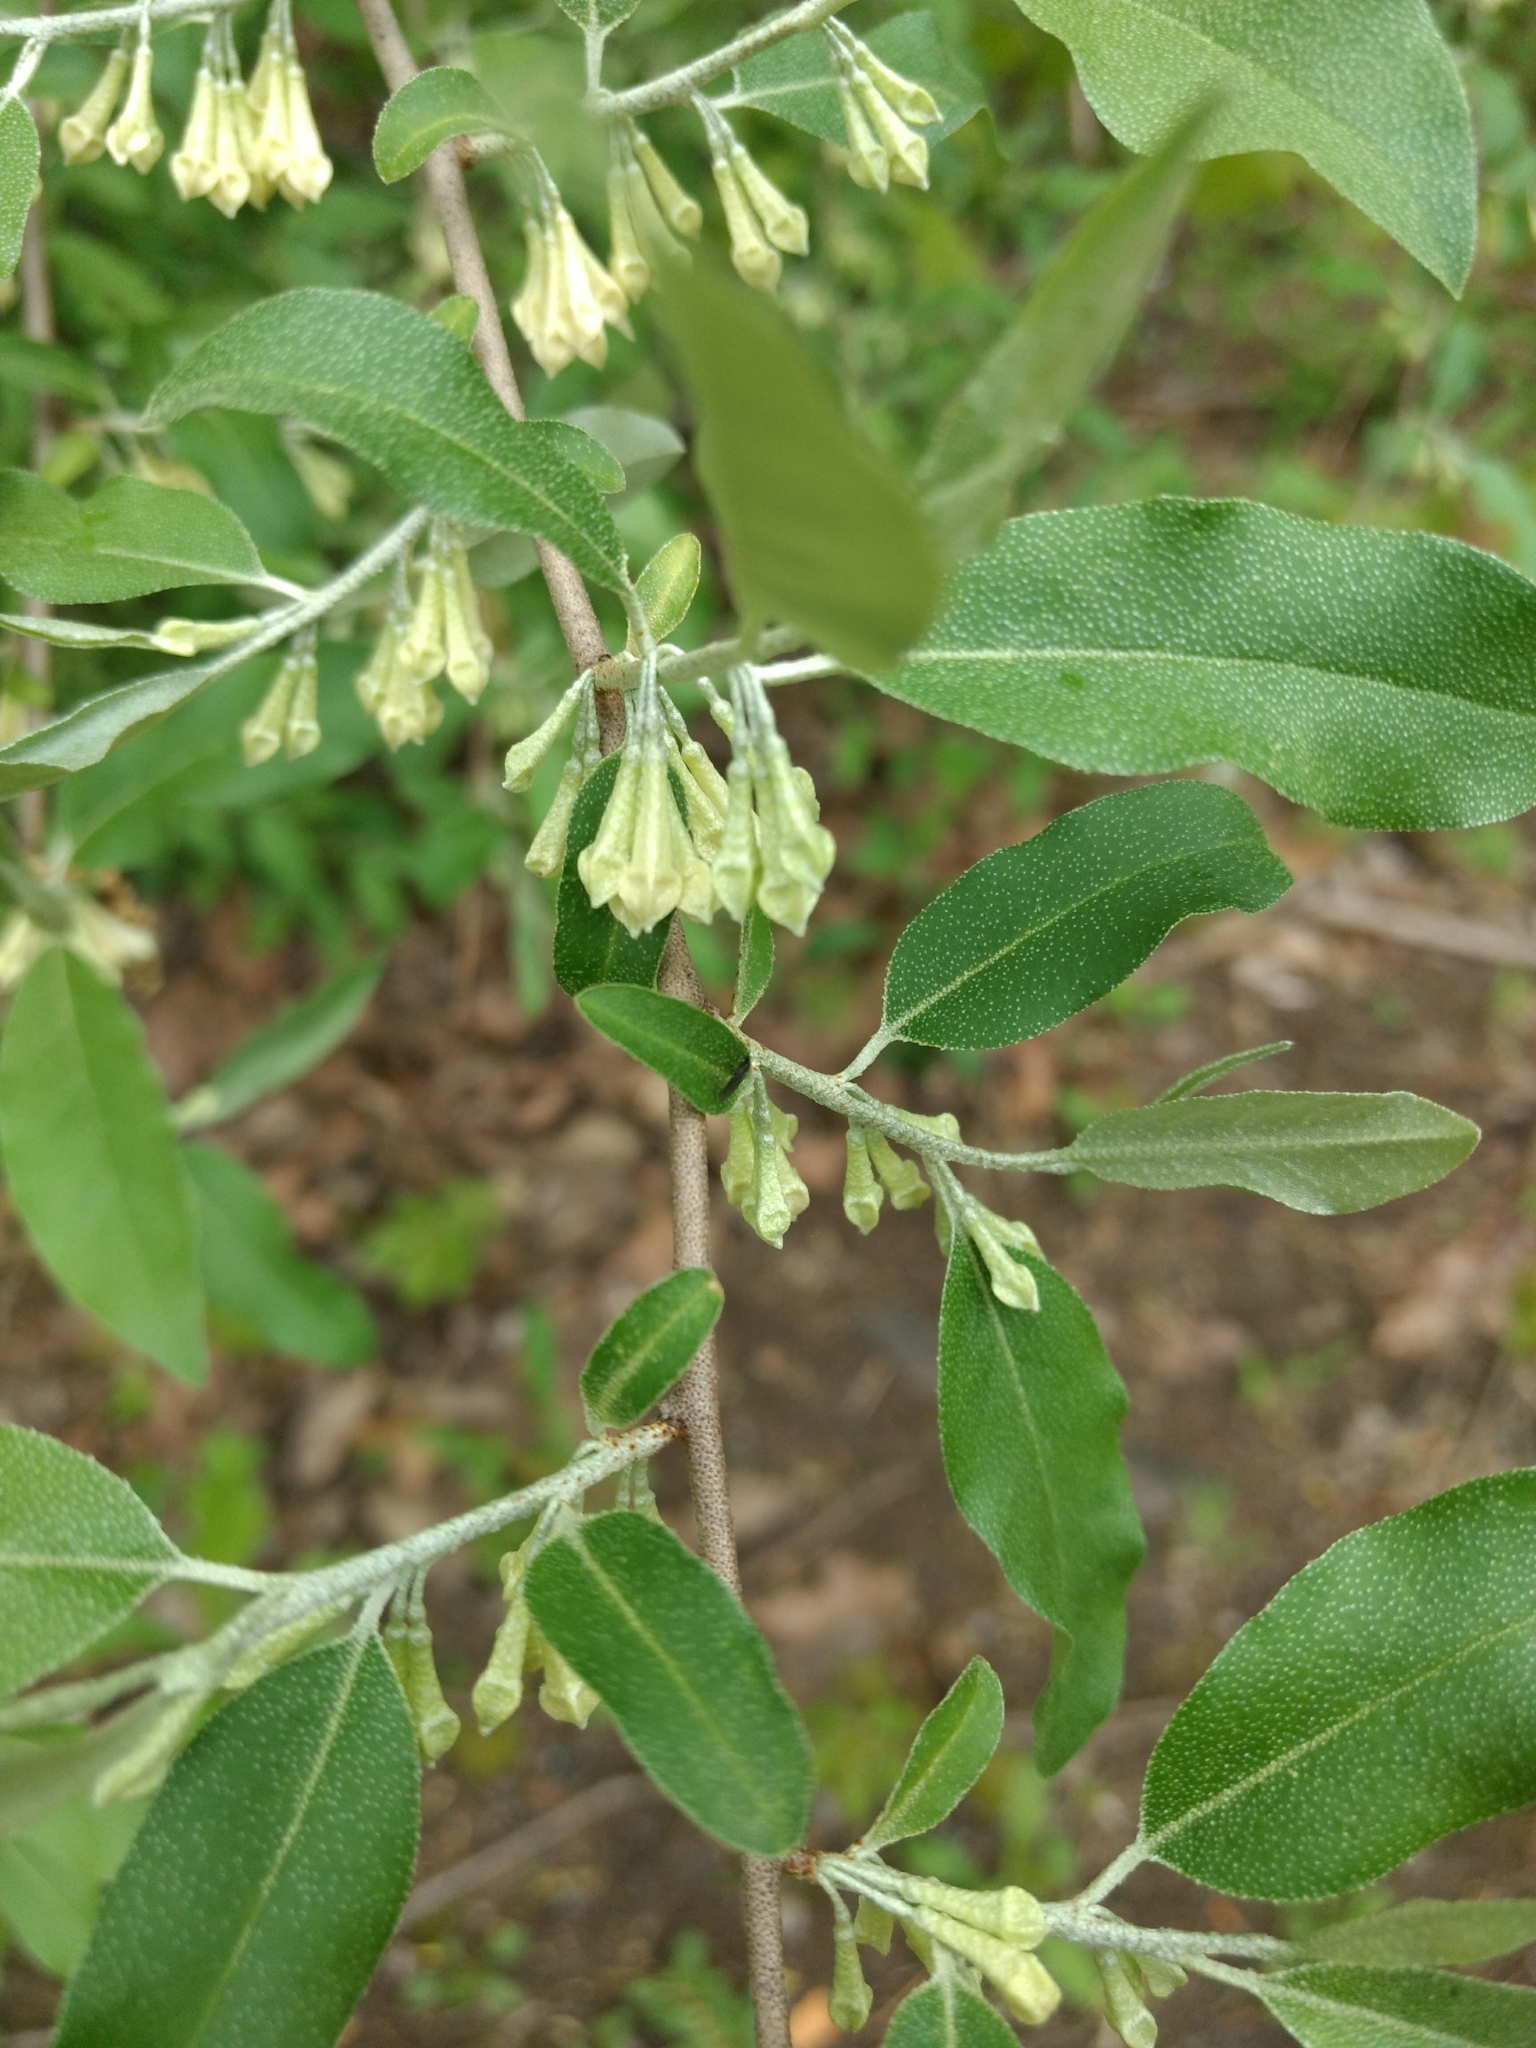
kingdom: Plantae
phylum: Tracheophyta
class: Magnoliopsida
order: Rosales
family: Elaeagnaceae
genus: Elaeagnus
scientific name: Elaeagnus umbellata
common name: Autumn olive
